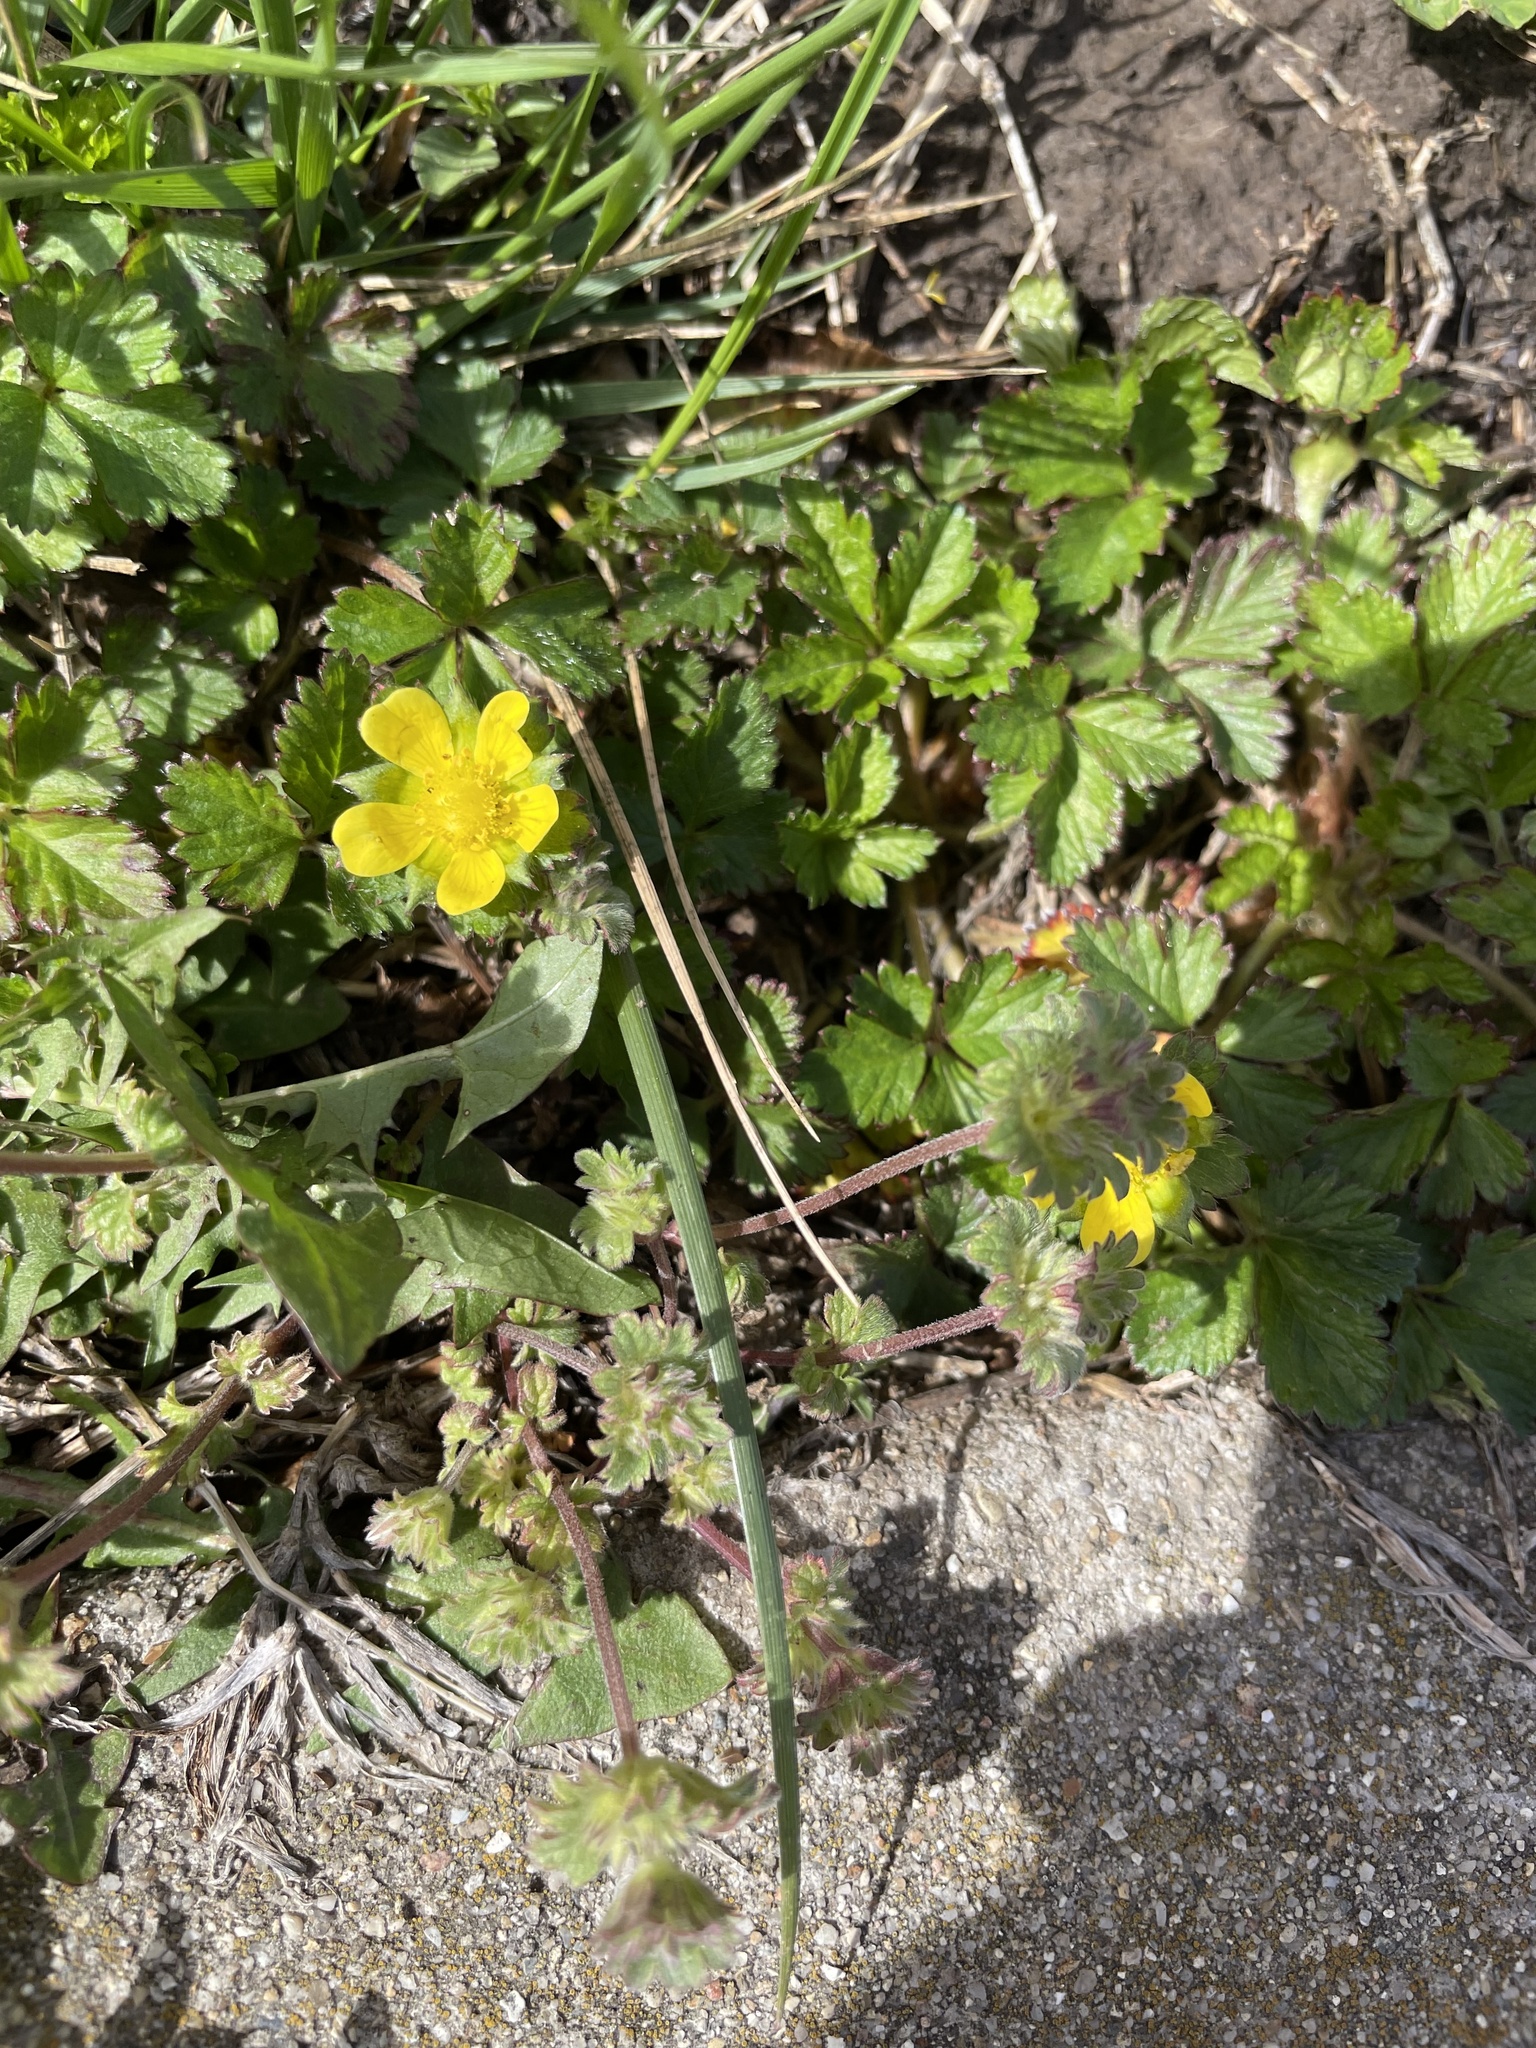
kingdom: Plantae
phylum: Tracheophyta
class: Magnoliopsida
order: Rosales
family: Rosaceae
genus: Potentilla
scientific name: Potentilla indica
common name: Yellow-flowered strawberry
